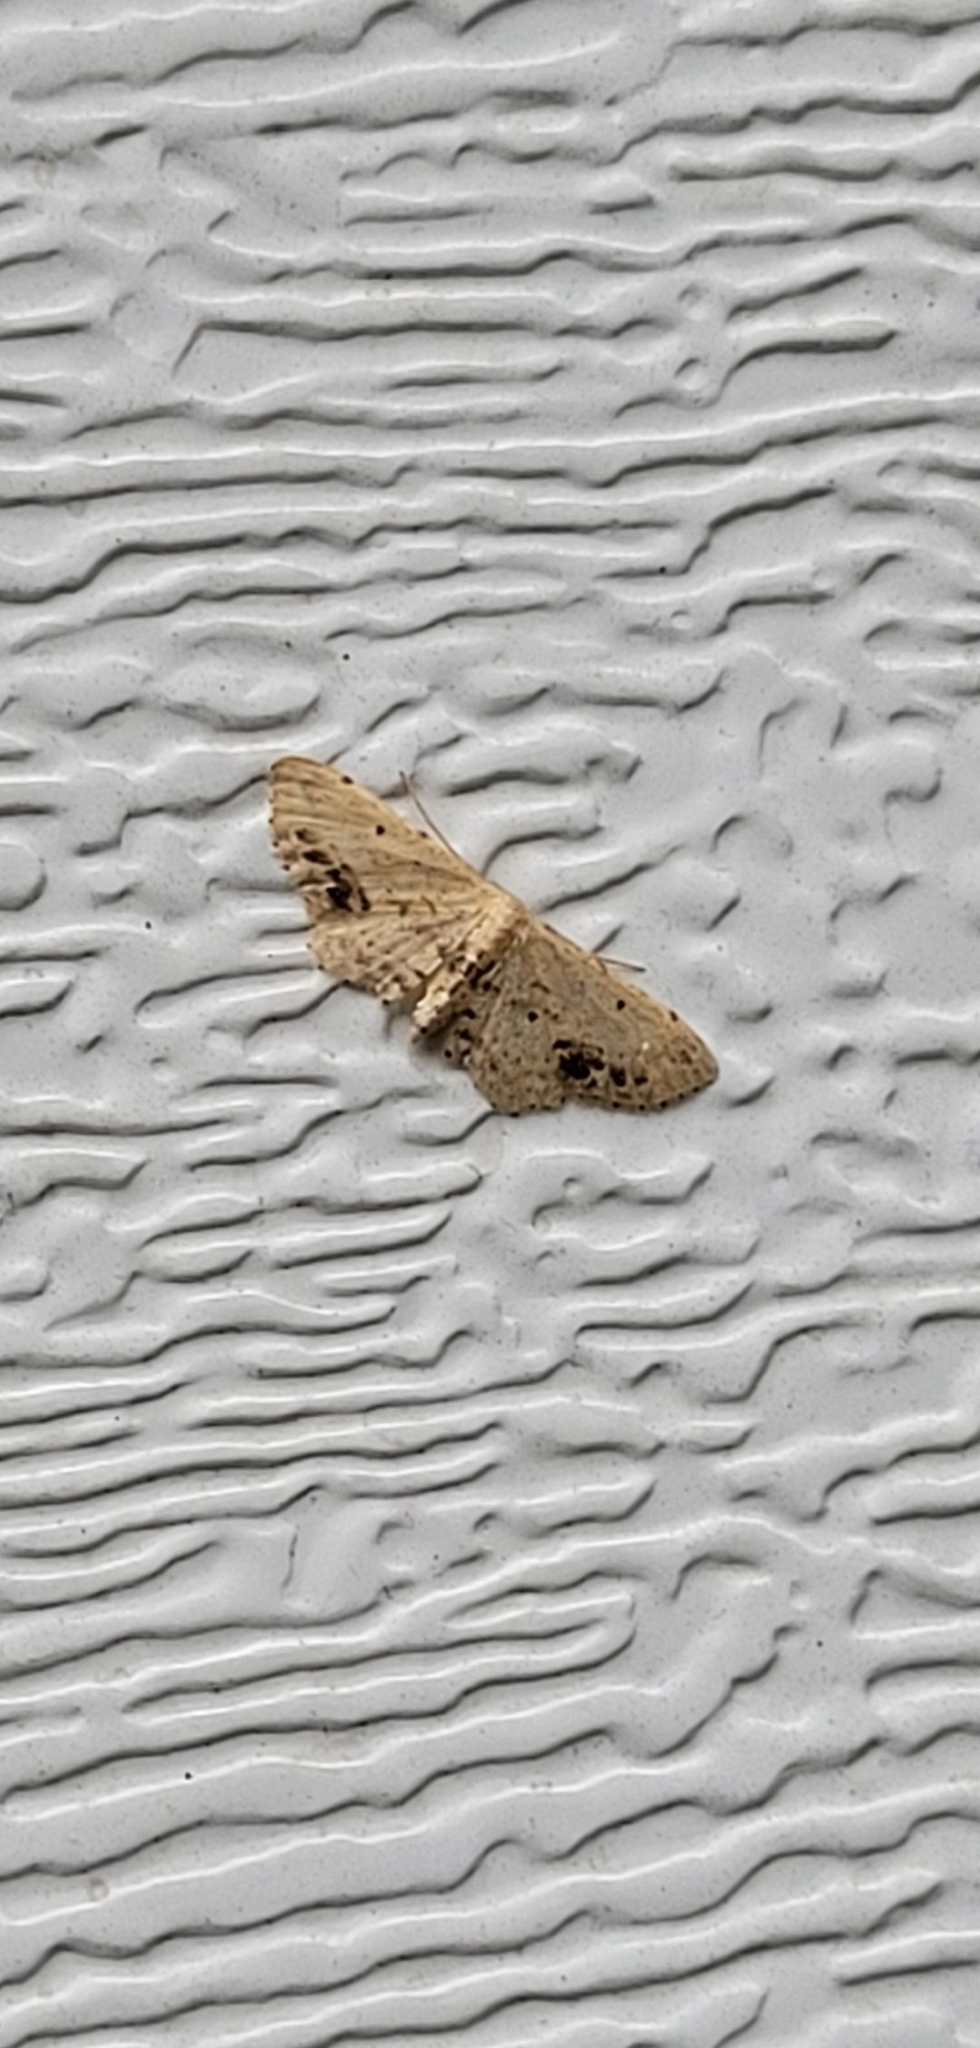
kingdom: Animalia
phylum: Arthropoda
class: Insecta
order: Lepidoptera
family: Geometridae
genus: Idaea
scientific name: Idaea dimidiata
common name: Single-dotted wave
